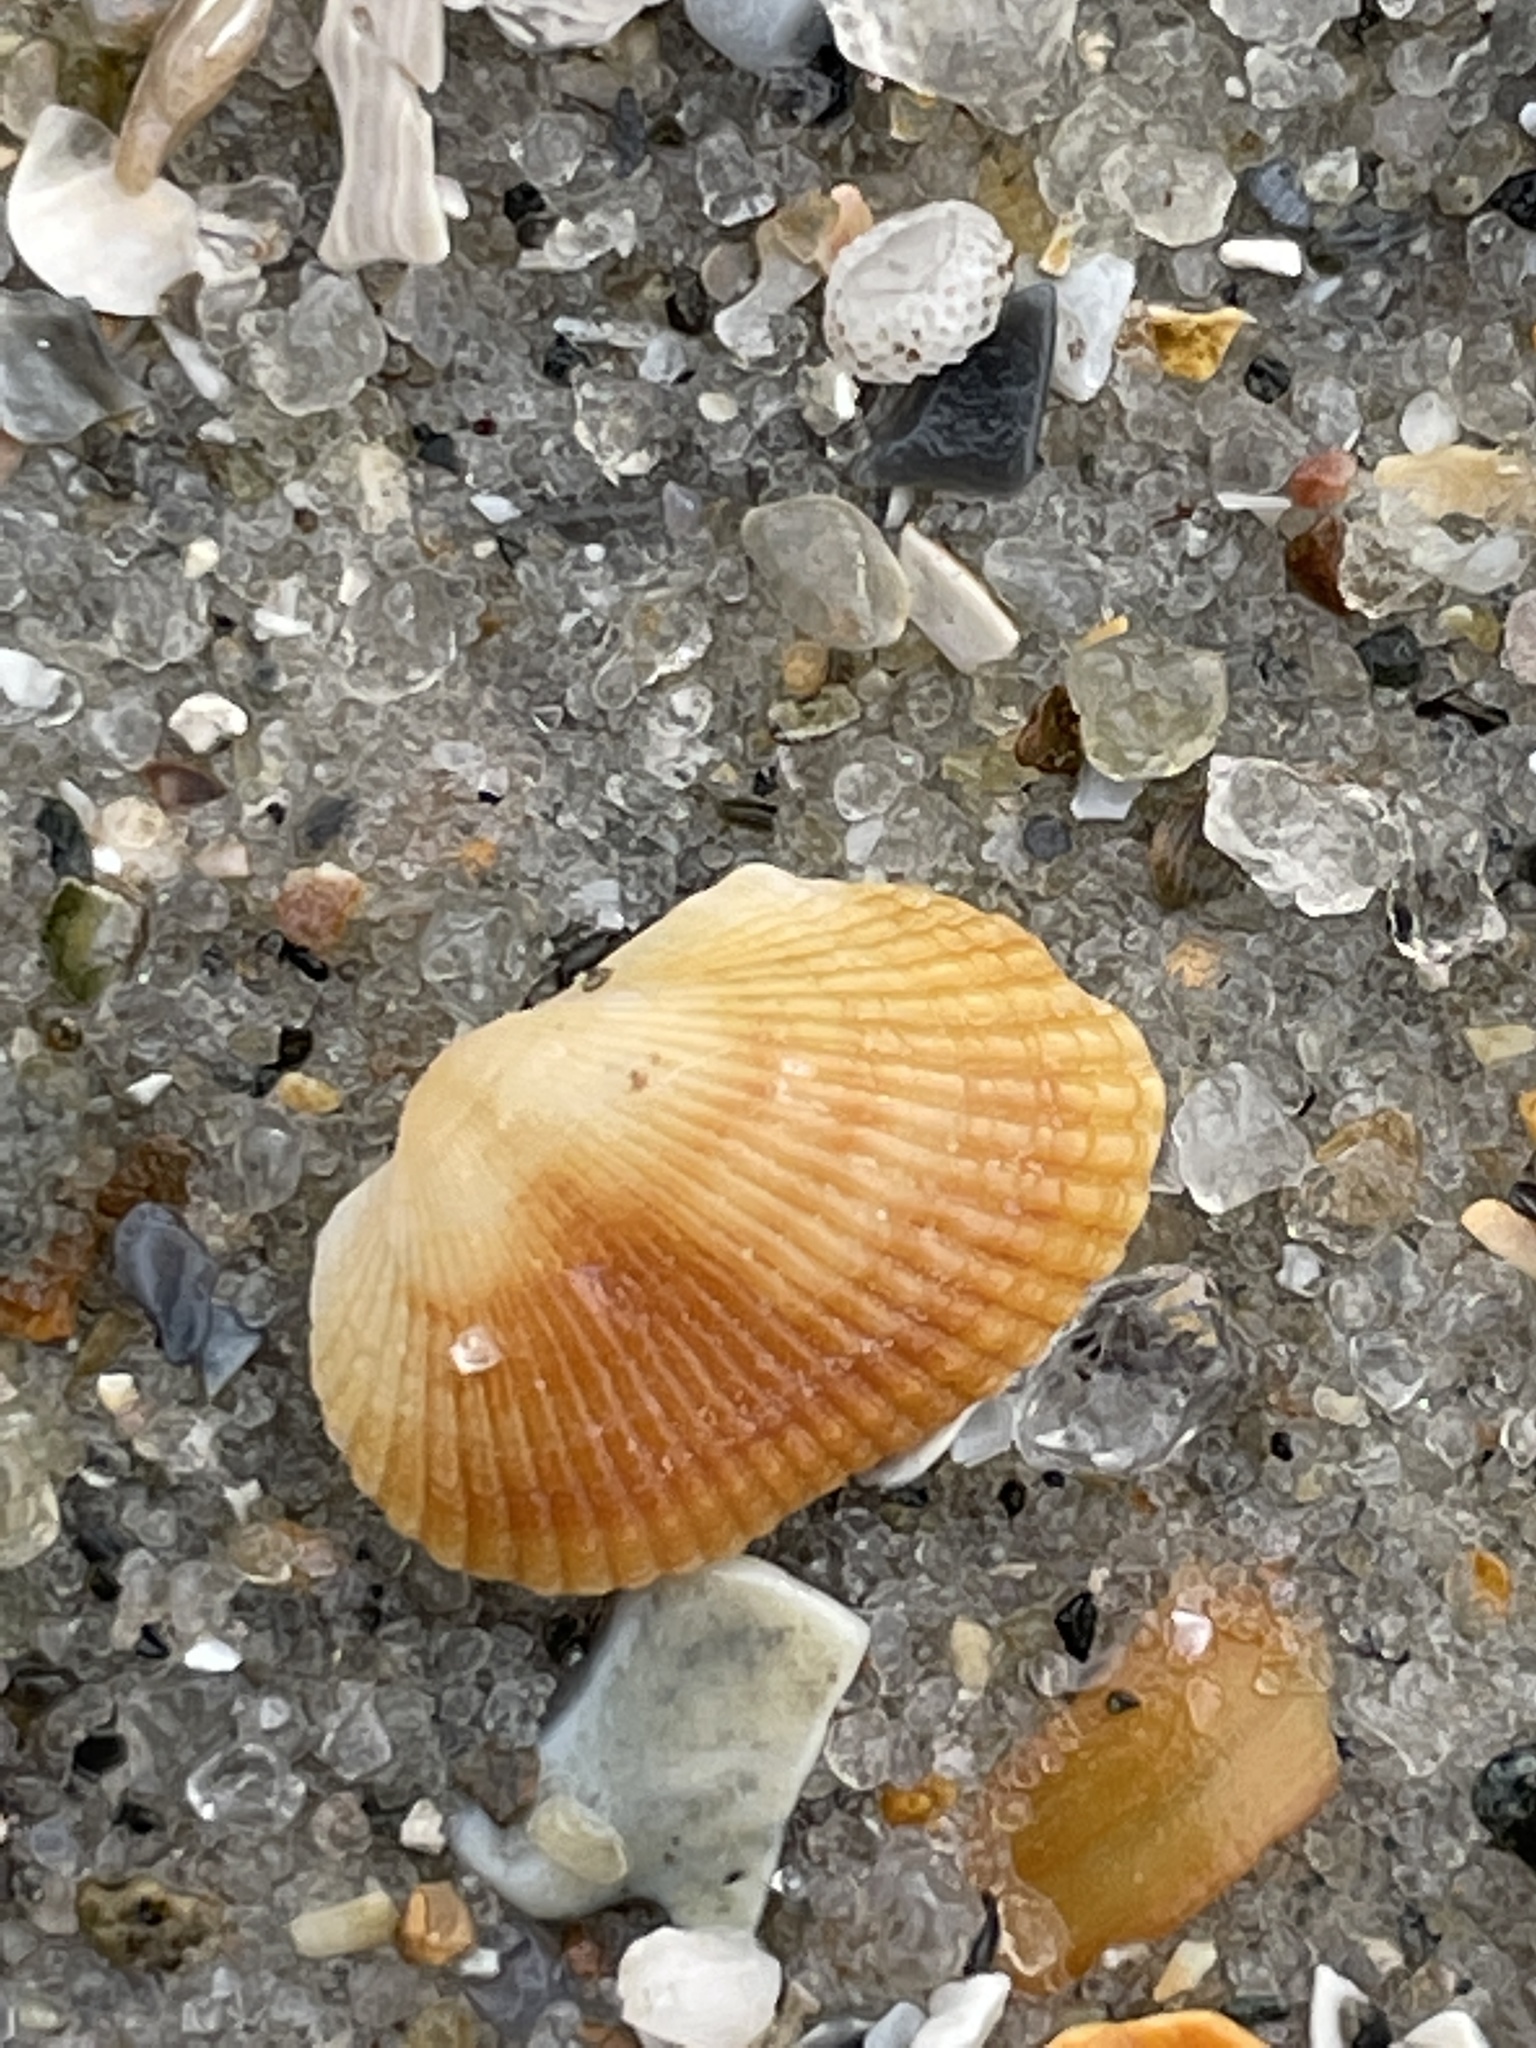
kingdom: Animalia
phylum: Mollusca
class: Bivalvia
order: Arcida
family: Arcidae
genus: Anadara
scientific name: Anadara transversa
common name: Transverse ark
